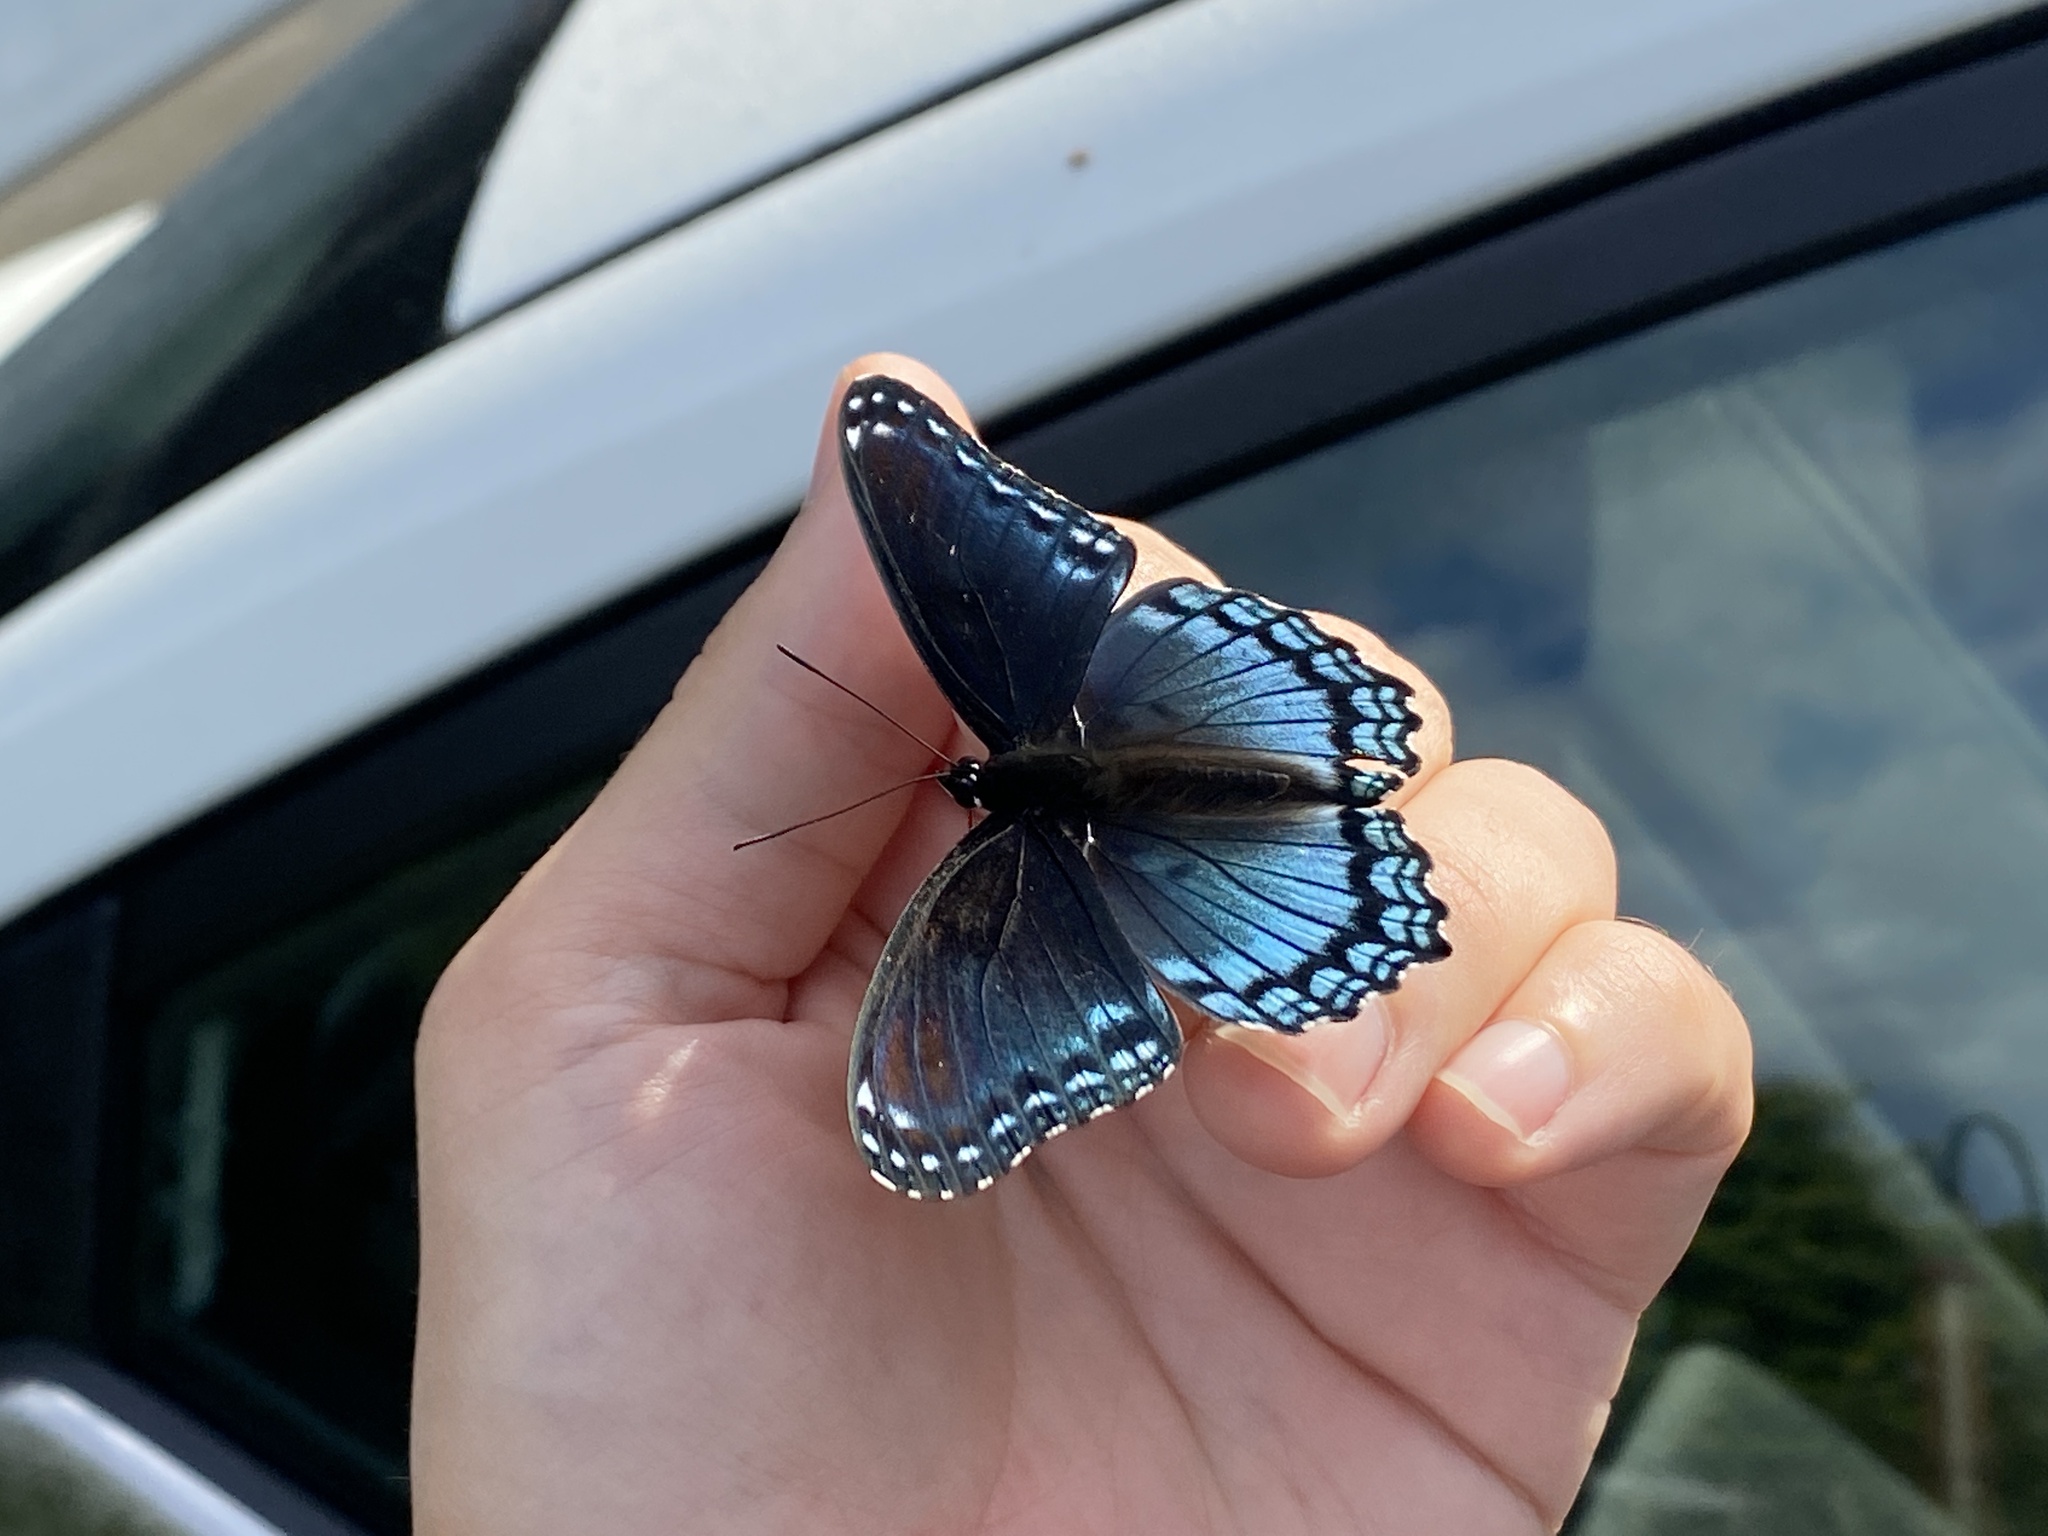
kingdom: Animalia
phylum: Arthropoda
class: Insecta
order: Lepidoptera
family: Nymphalidae
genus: Limenitis
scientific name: Limenitis astyanax
